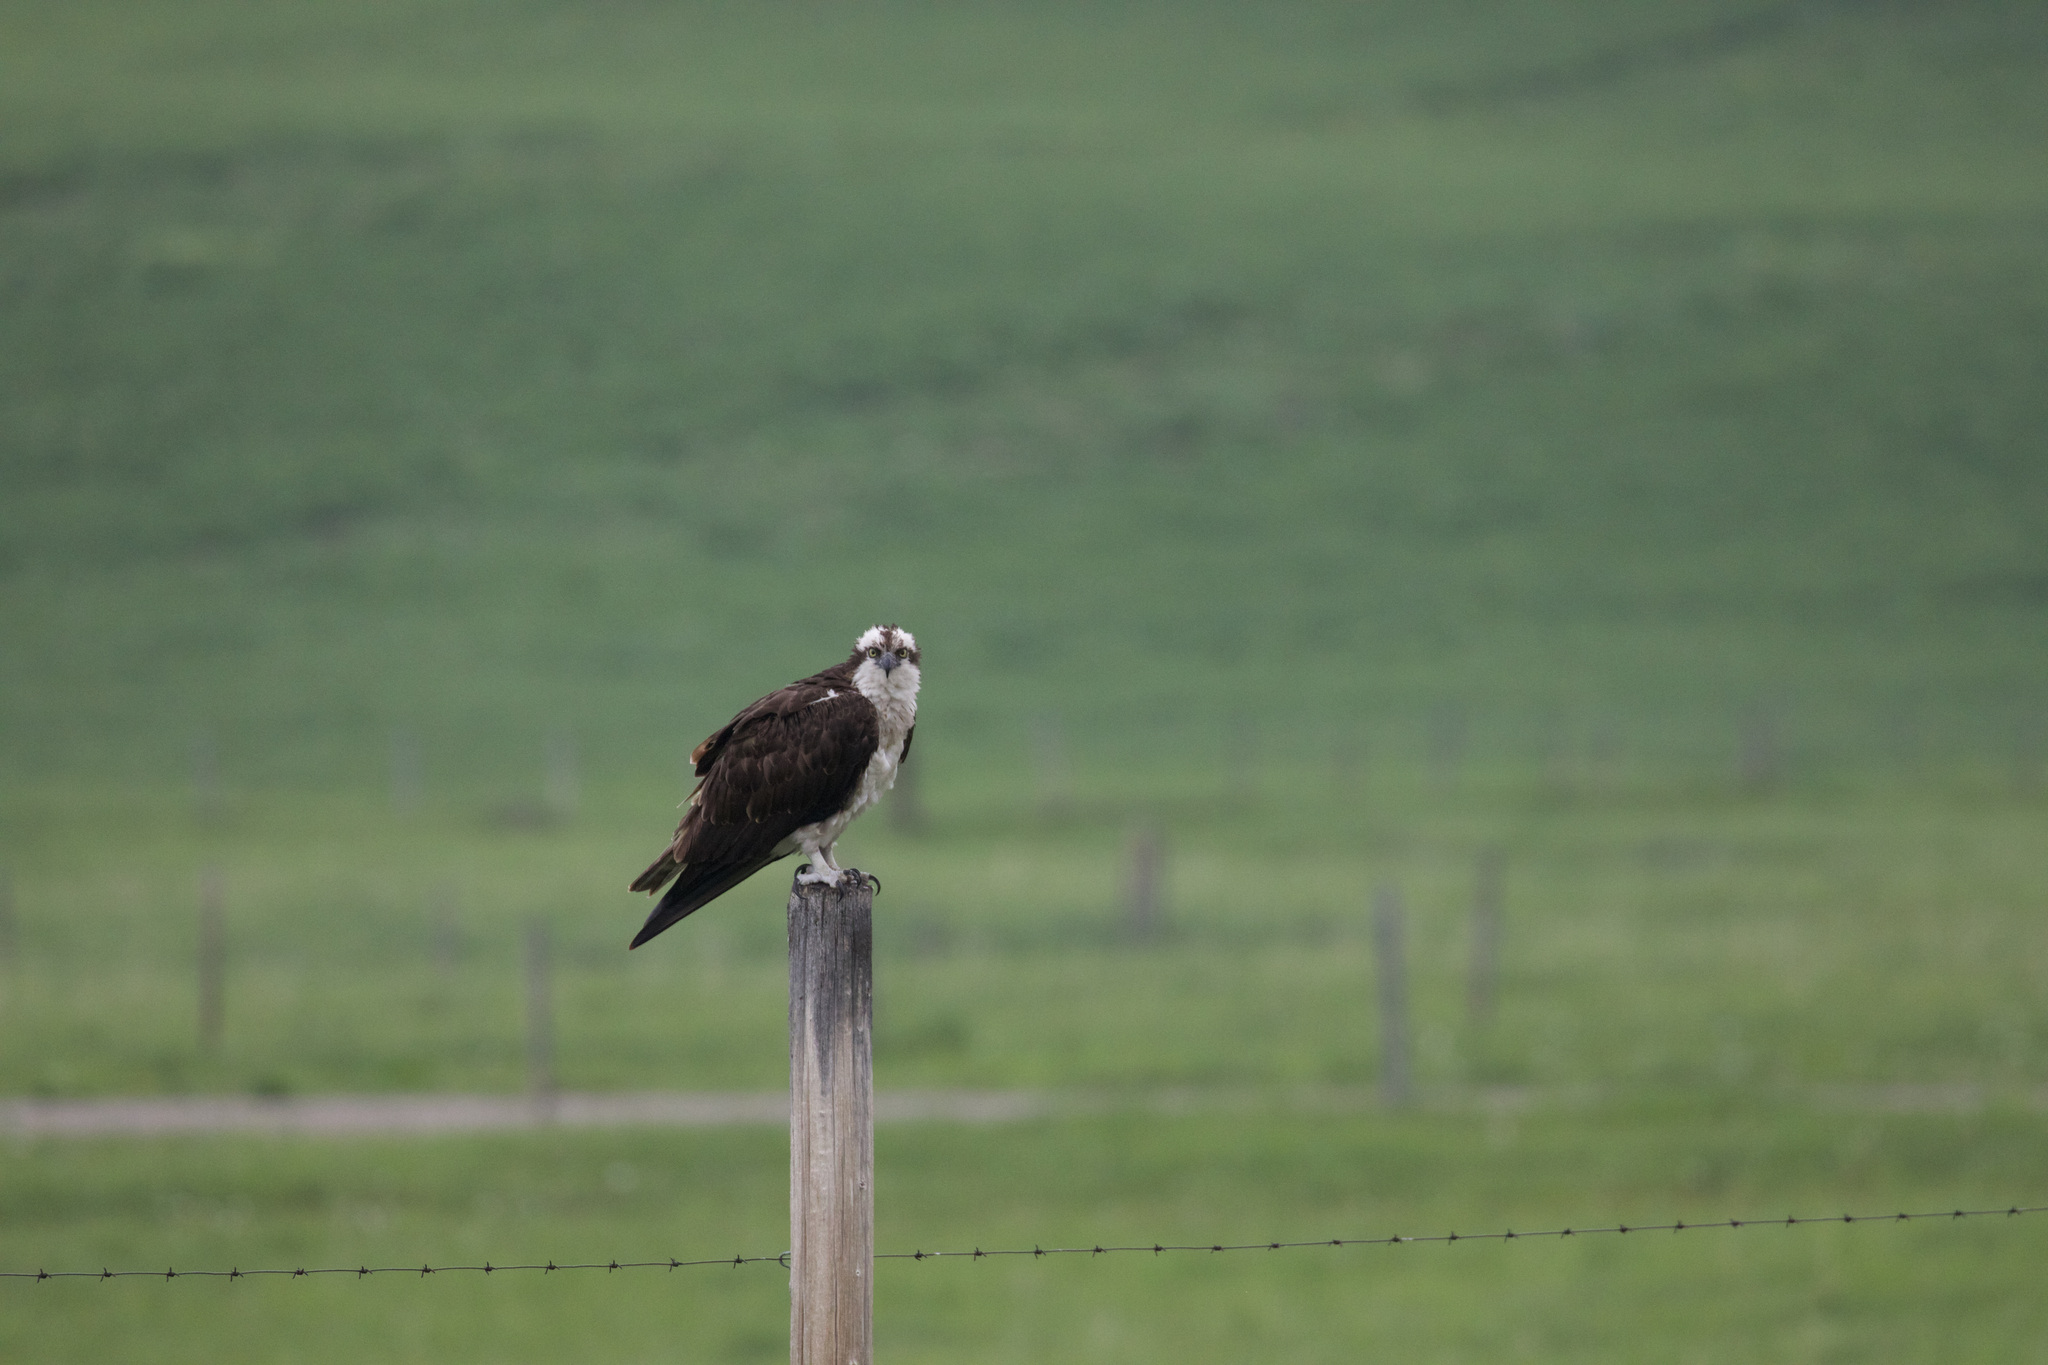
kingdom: Animalia
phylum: Chordata
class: Aves
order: Accipitriformes
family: Pandionidae
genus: Pandion
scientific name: Pandion haliaetus
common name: Osprey
